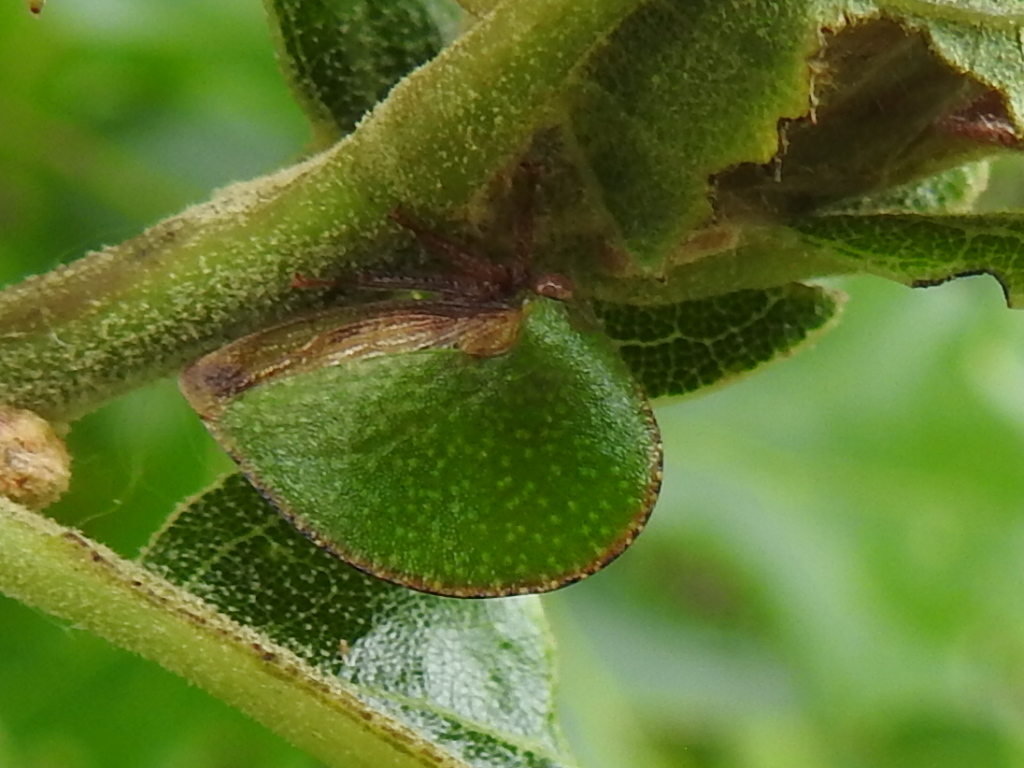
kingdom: Animalia
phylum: Arthropoda
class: Insecta
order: Hemiptera
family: Membracidae
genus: Archasia
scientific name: Archasia auriculata
